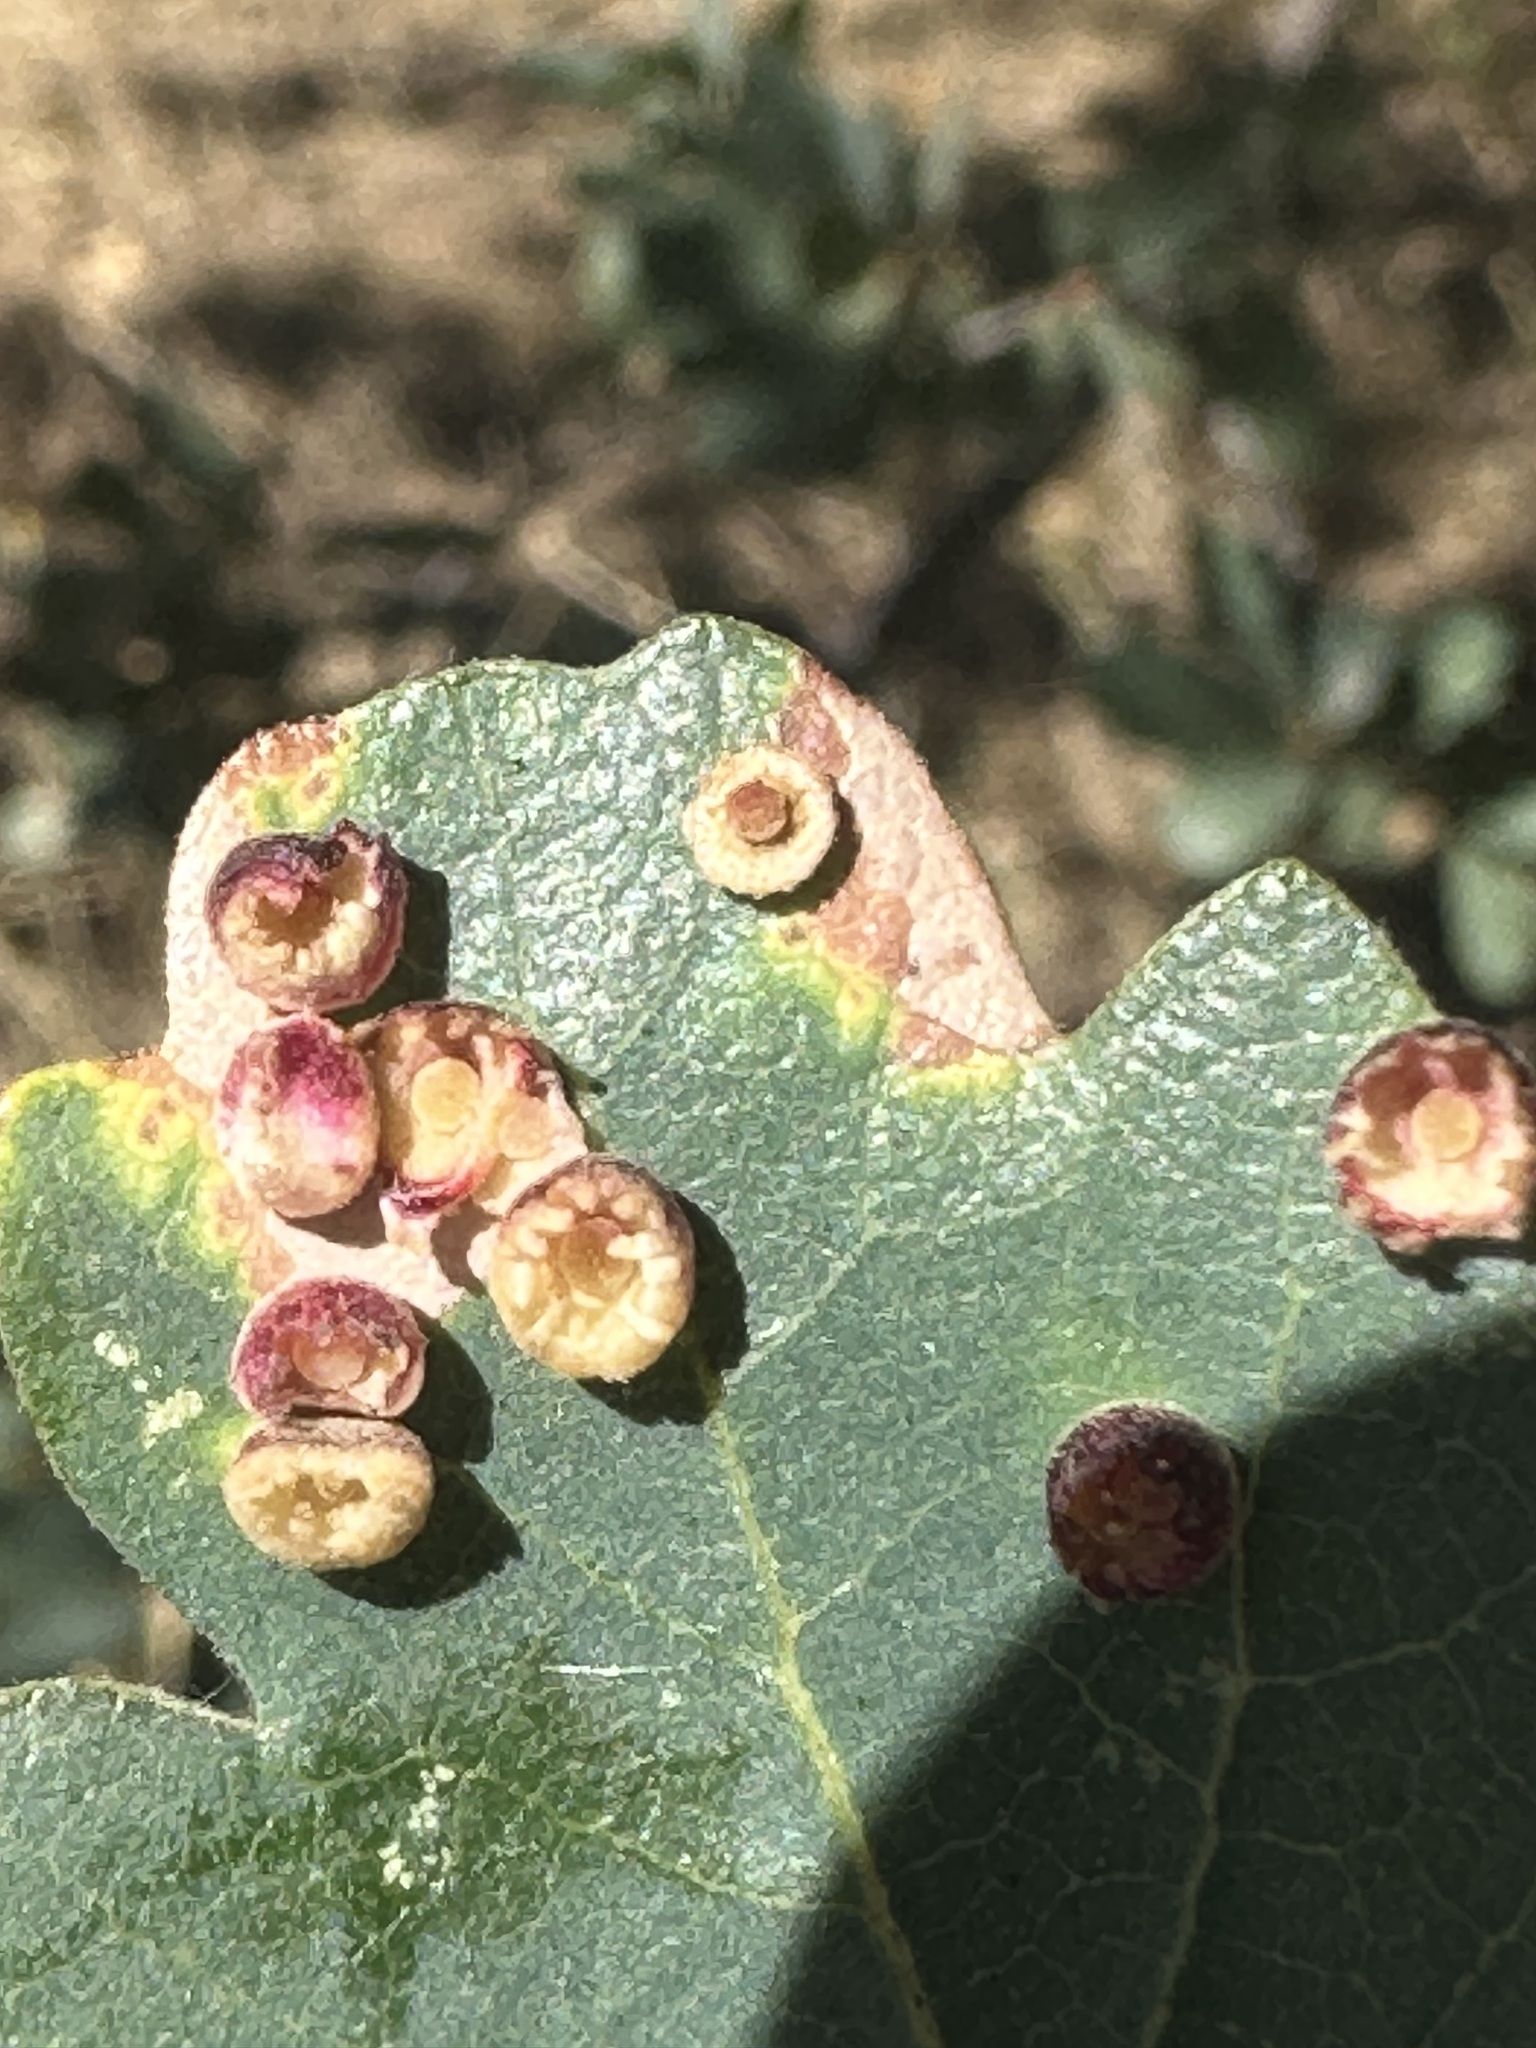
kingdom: Animalia
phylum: Arthropoda
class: Insecta
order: Hymenoptera
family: Cynipidae
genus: Andricus
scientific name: Andricus
